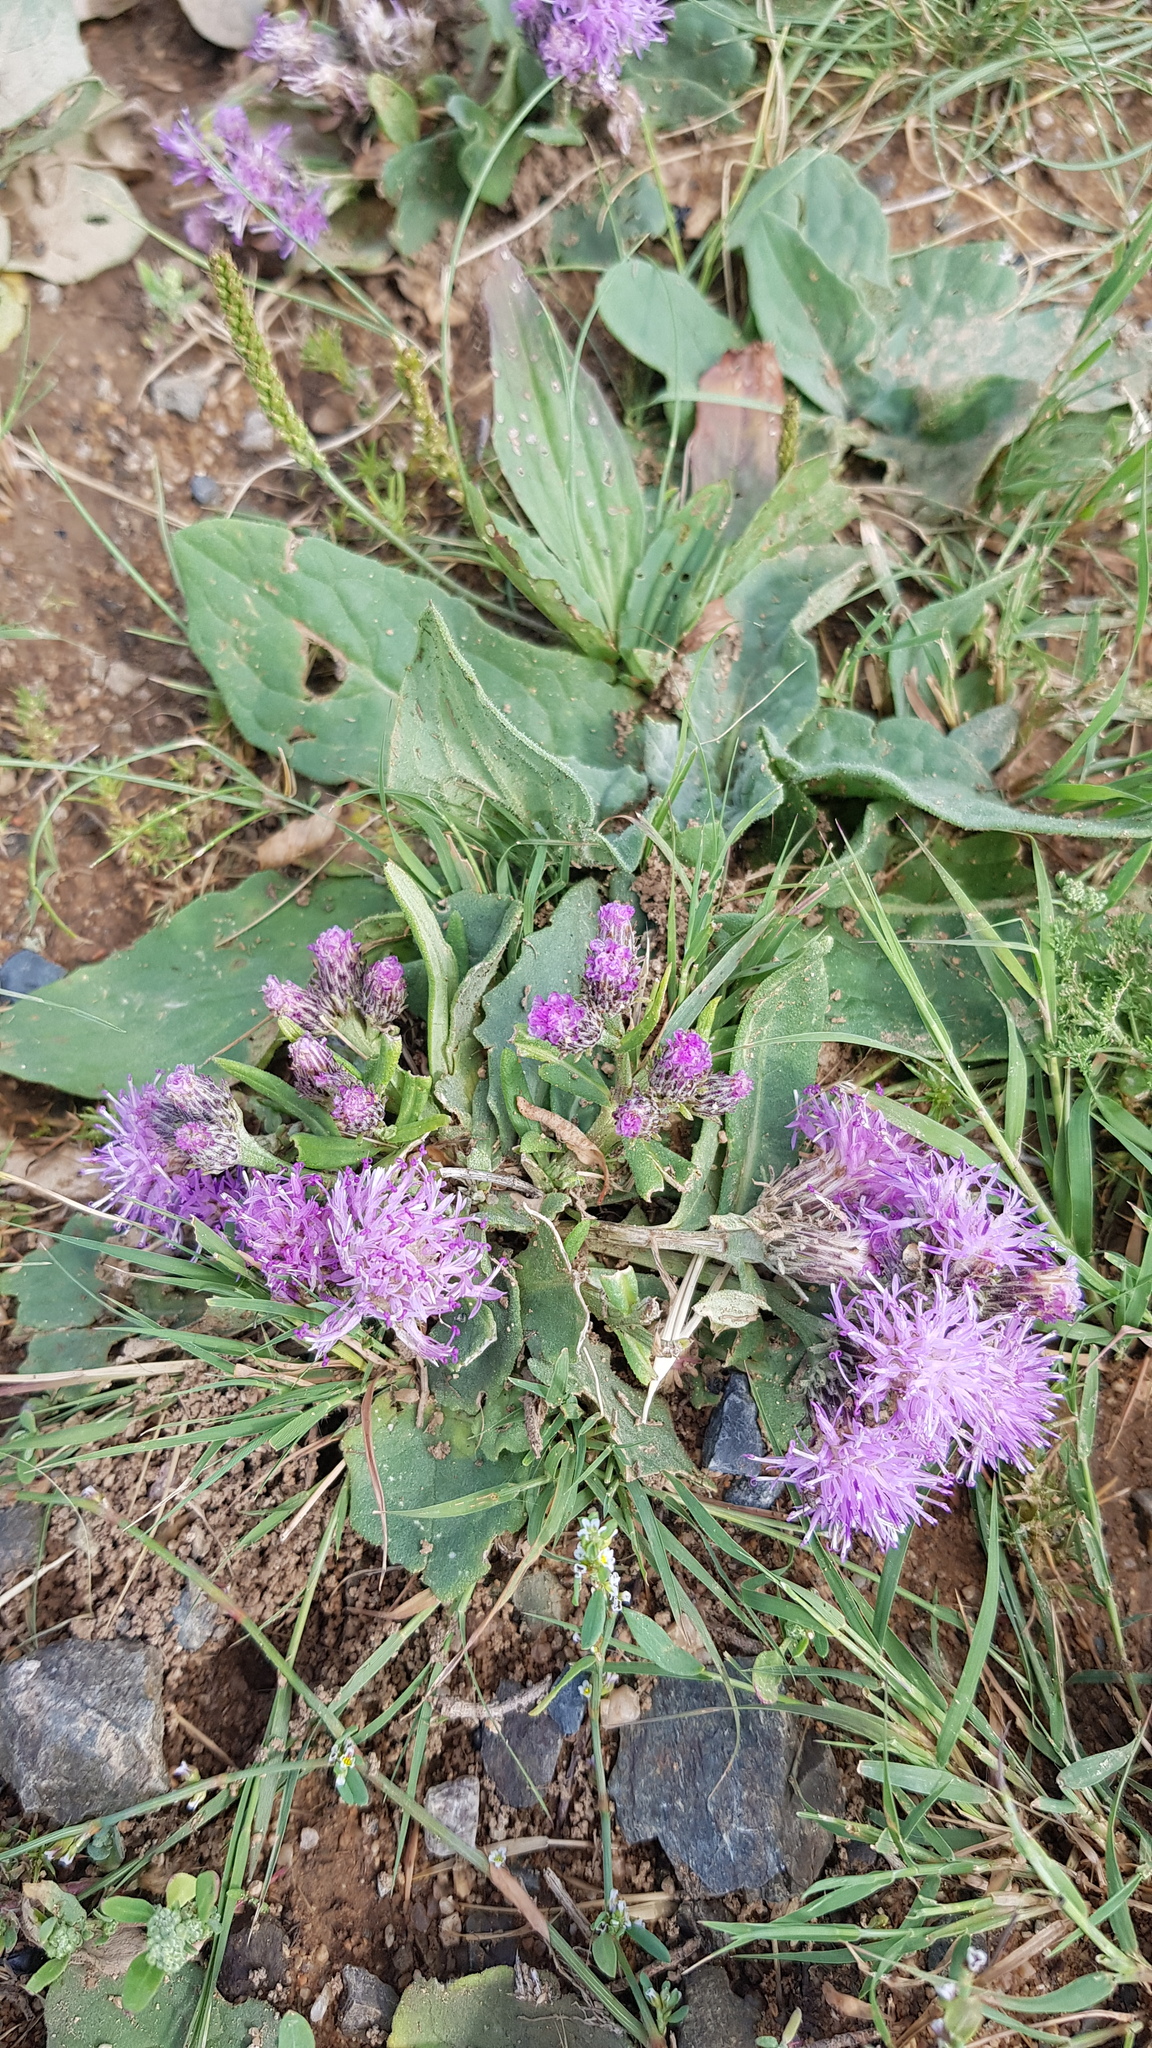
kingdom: Plantae
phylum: Tracheophyta
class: Magnoliopsida
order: Asterales
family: Asteraceae
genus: Saussurea
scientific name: Saussurea amara
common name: Alberta sawwort
